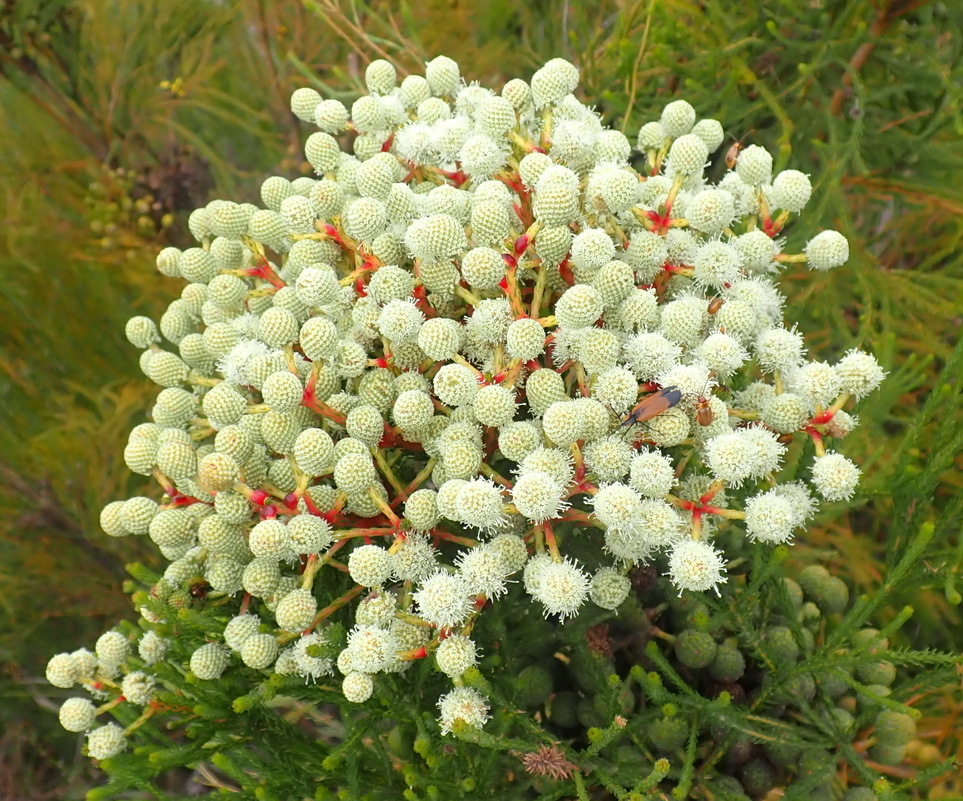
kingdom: Plantae
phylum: Tracheophyta
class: Magnoliopsida
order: Bruniales
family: Bruniaceae
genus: Berzelia
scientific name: Berzelia intermedia
